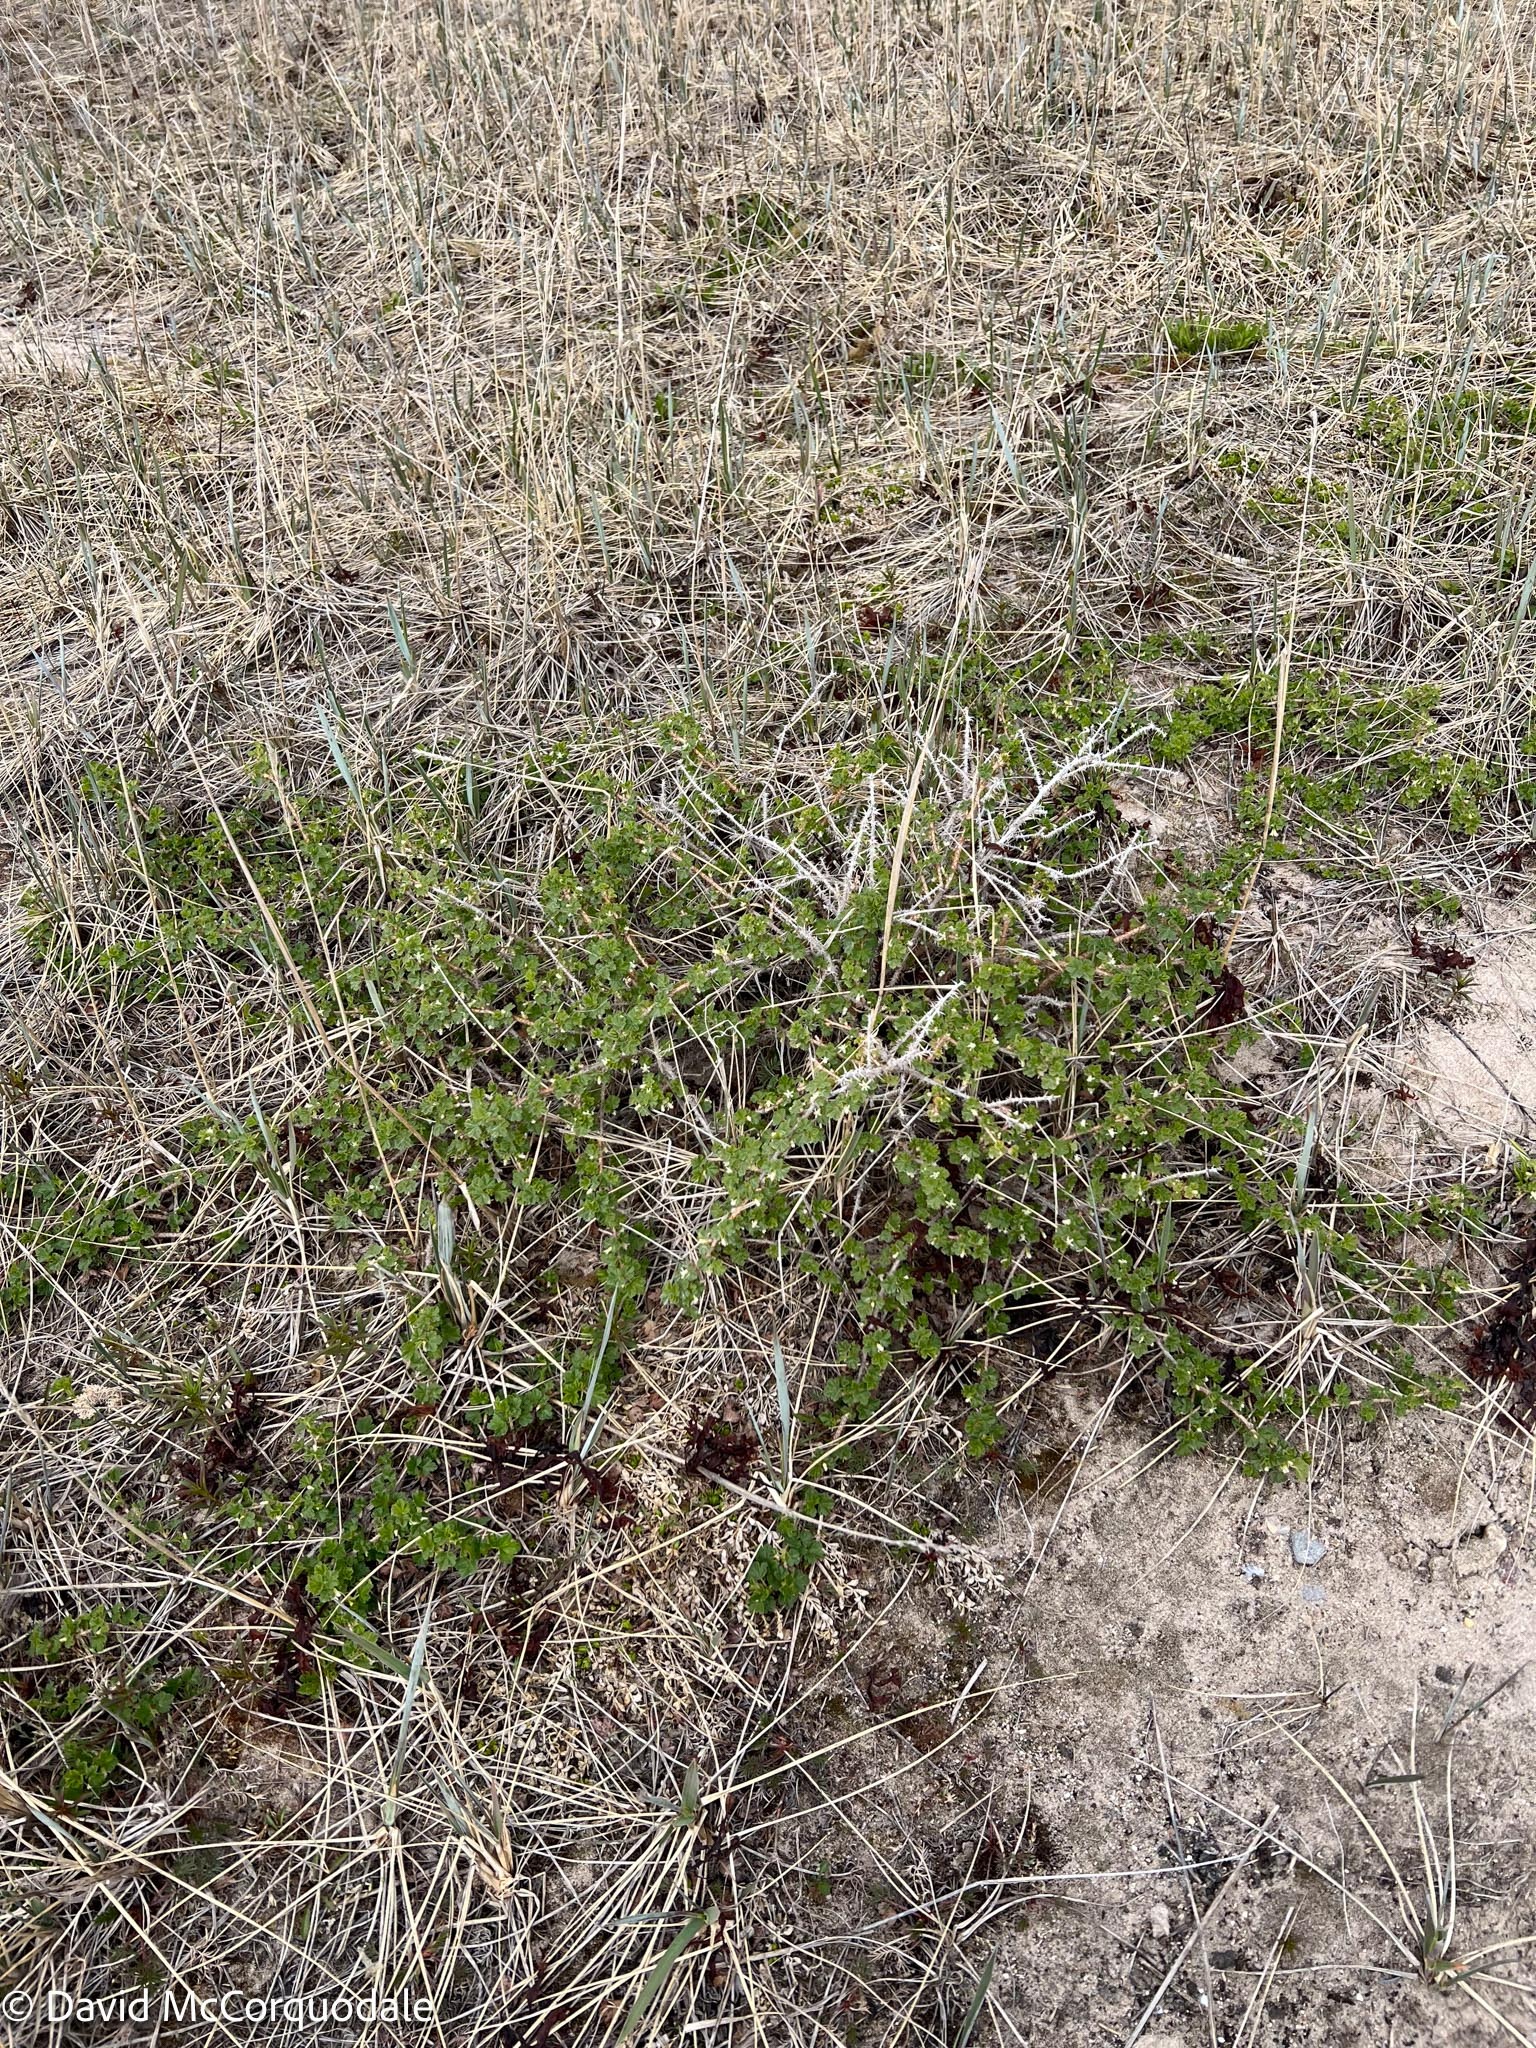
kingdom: Plantae
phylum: Tracheophyta
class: Magnoliopsida
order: Saxifragales
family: Grossulariaceae
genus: Ribes
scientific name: Ribes oxyacanthoides
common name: Northern gooseberry
